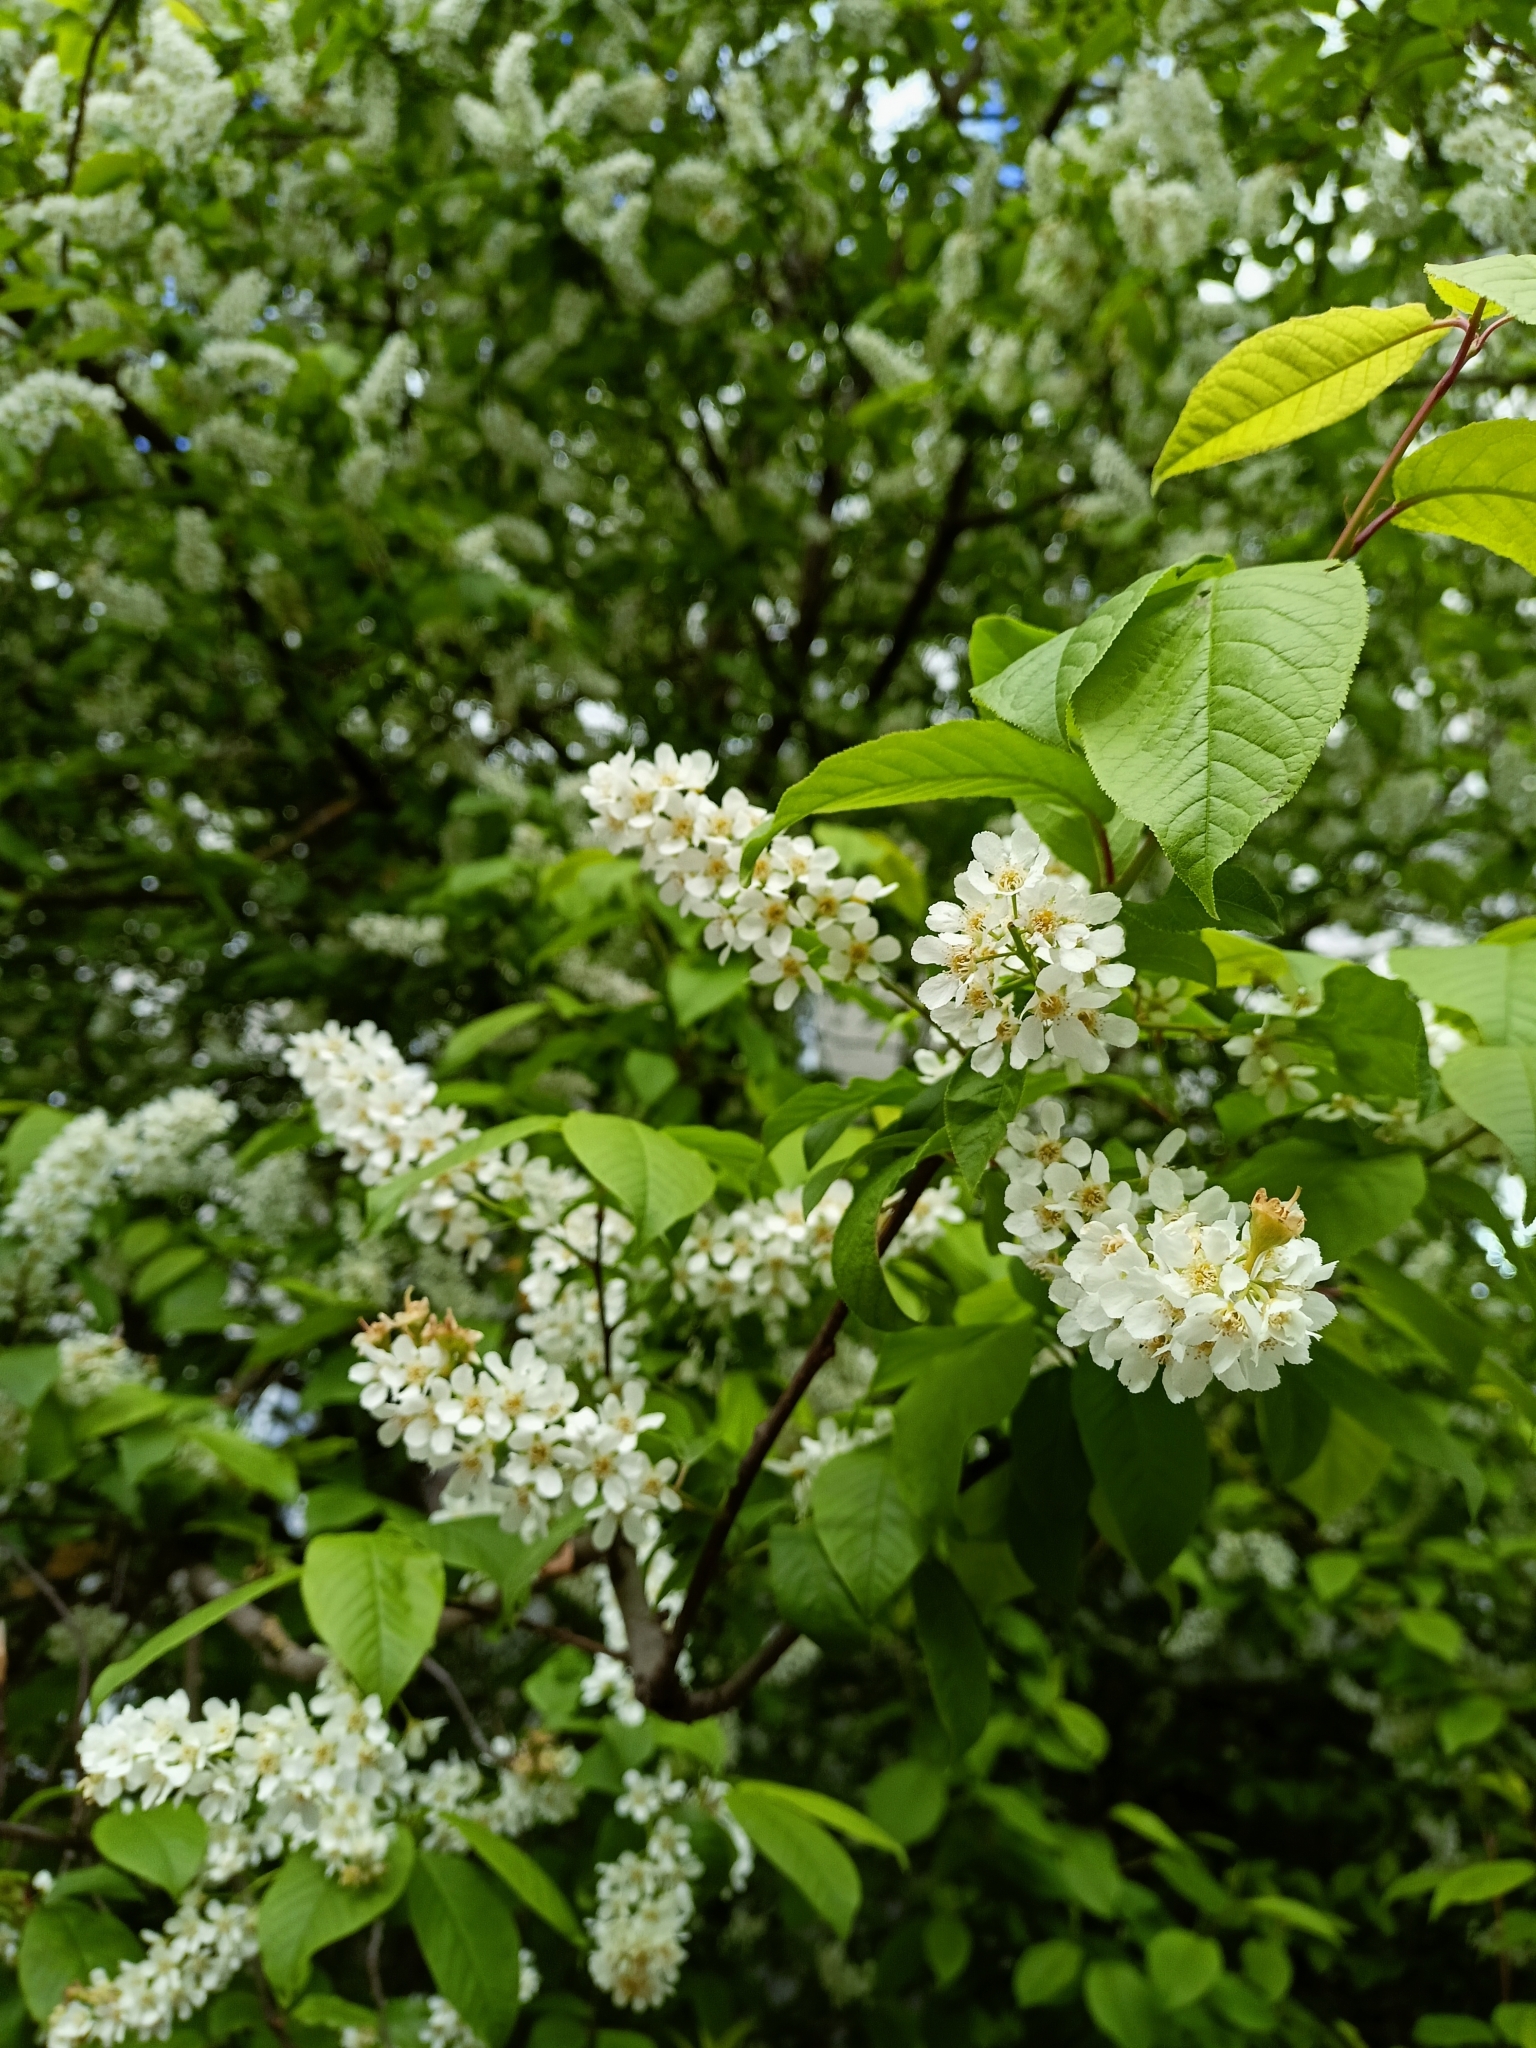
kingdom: Plantae
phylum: Tracheophyta
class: Magnoliopsida
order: Rosales
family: Rosaceae
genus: Prunus
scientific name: Prunus padus
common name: Bird cherry
